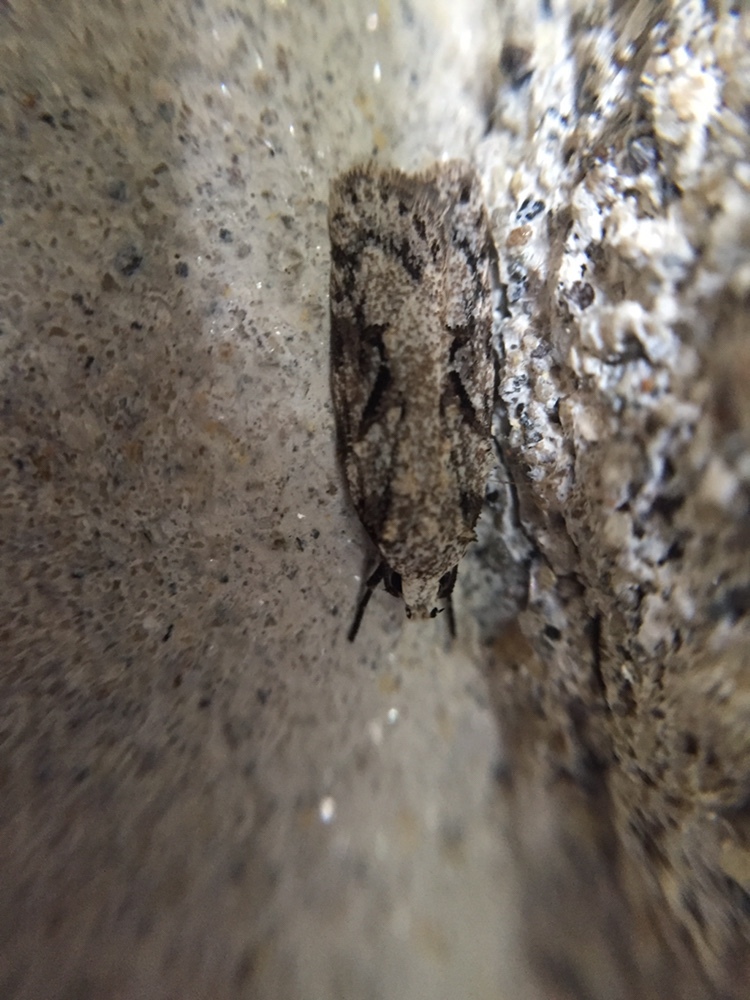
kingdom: Animalia
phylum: Arthropoda
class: Insecta
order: Lepidoptera
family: Oecophoridae
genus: Izatha
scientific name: Izatha mesoschista
